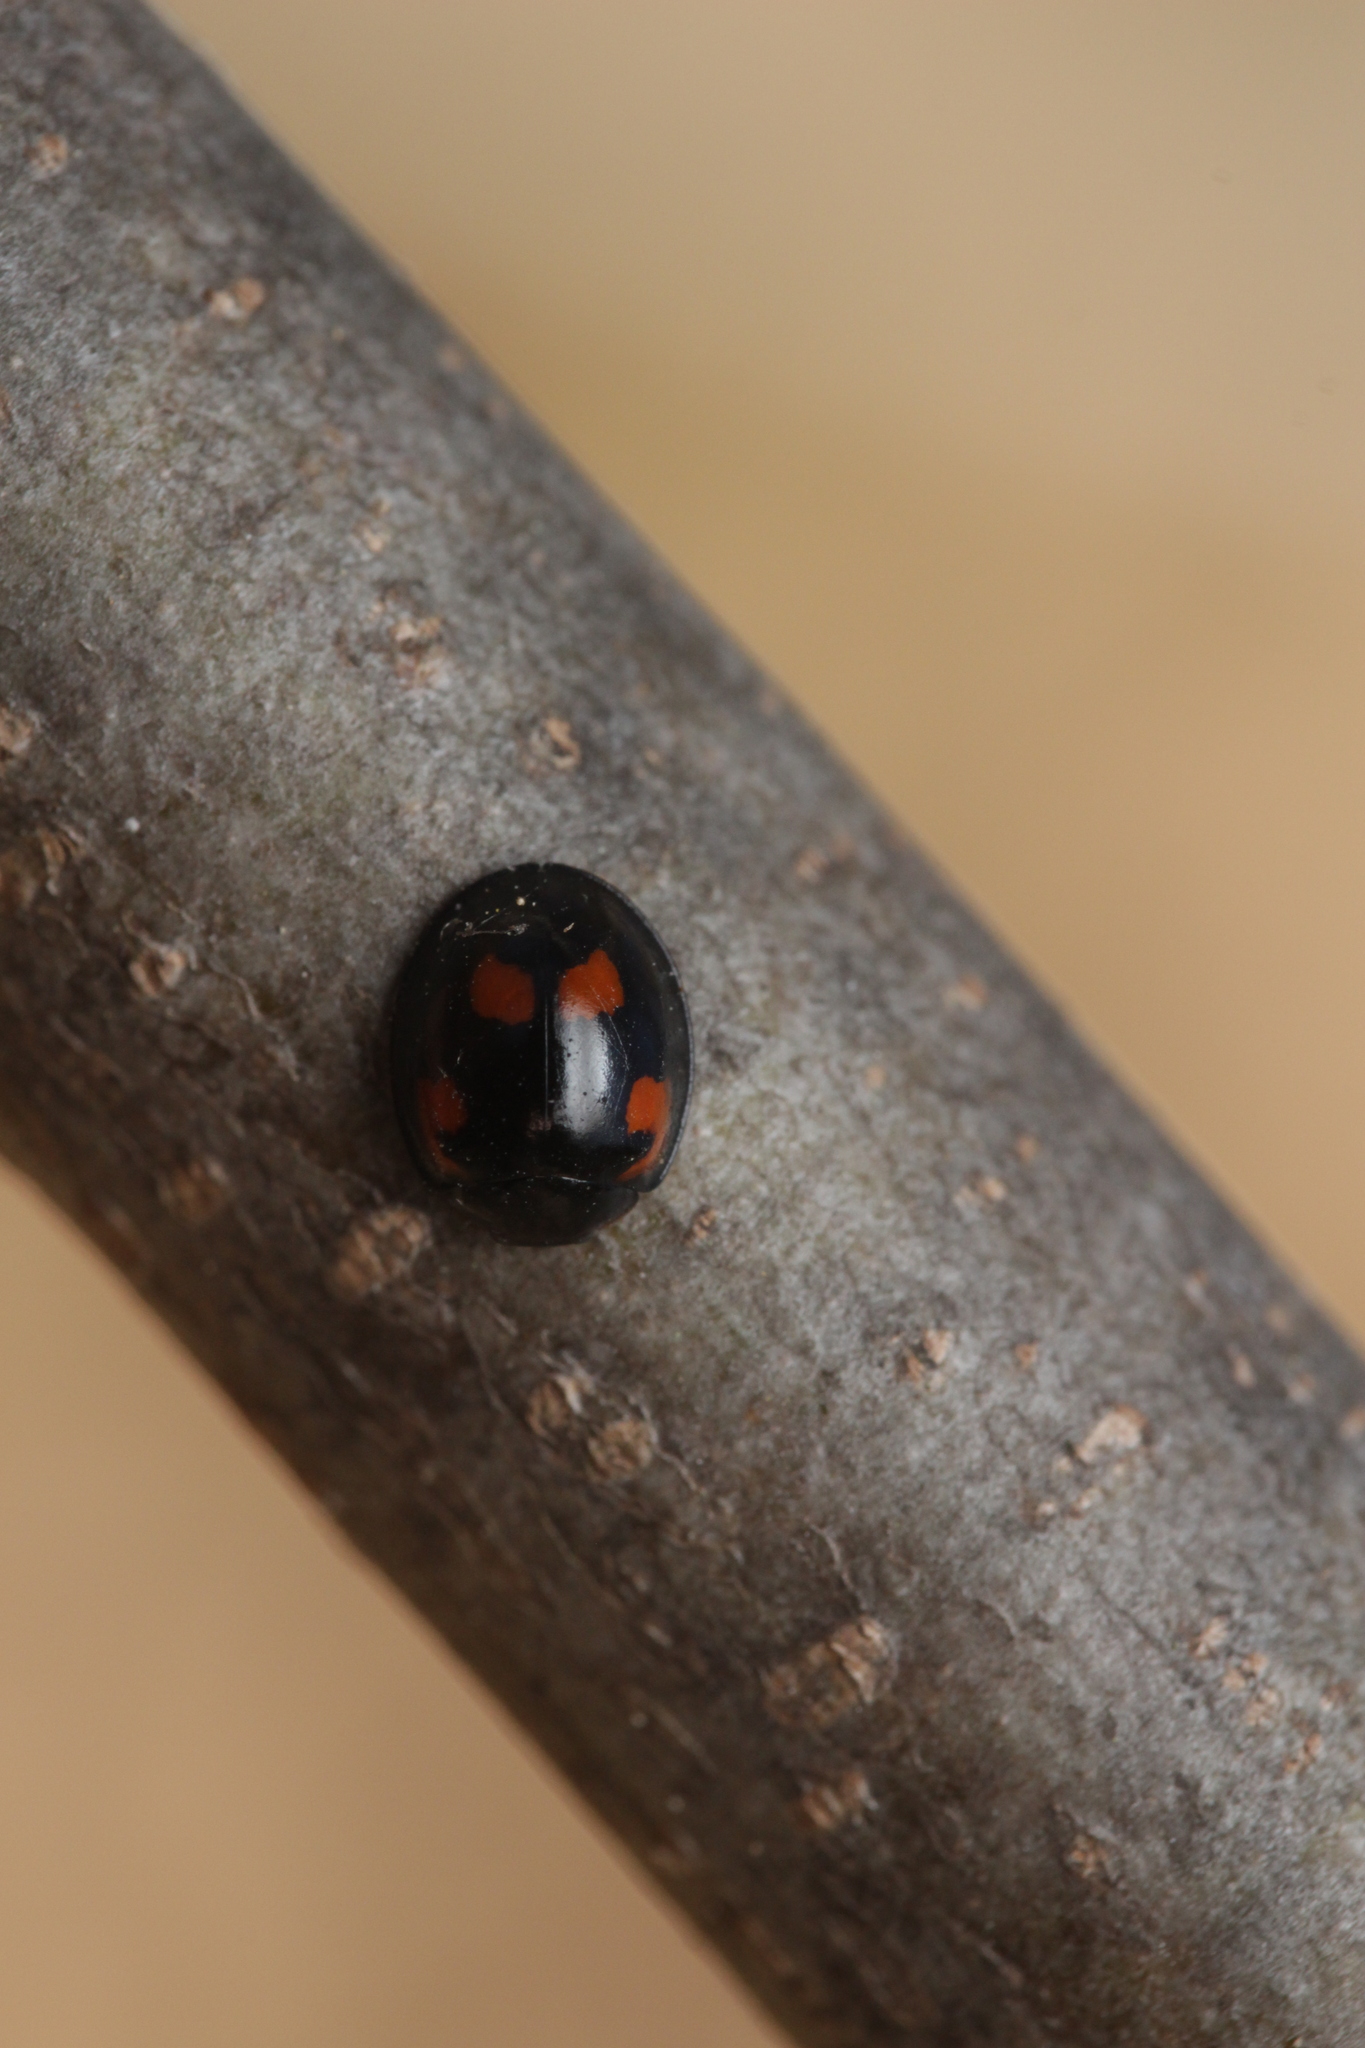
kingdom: Animalia
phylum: Arthropoda
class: Insecta
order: Coleoptera
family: Coccinellidae
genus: Brumus
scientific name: Brumus quadripustulatus
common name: Ladybird beetle
